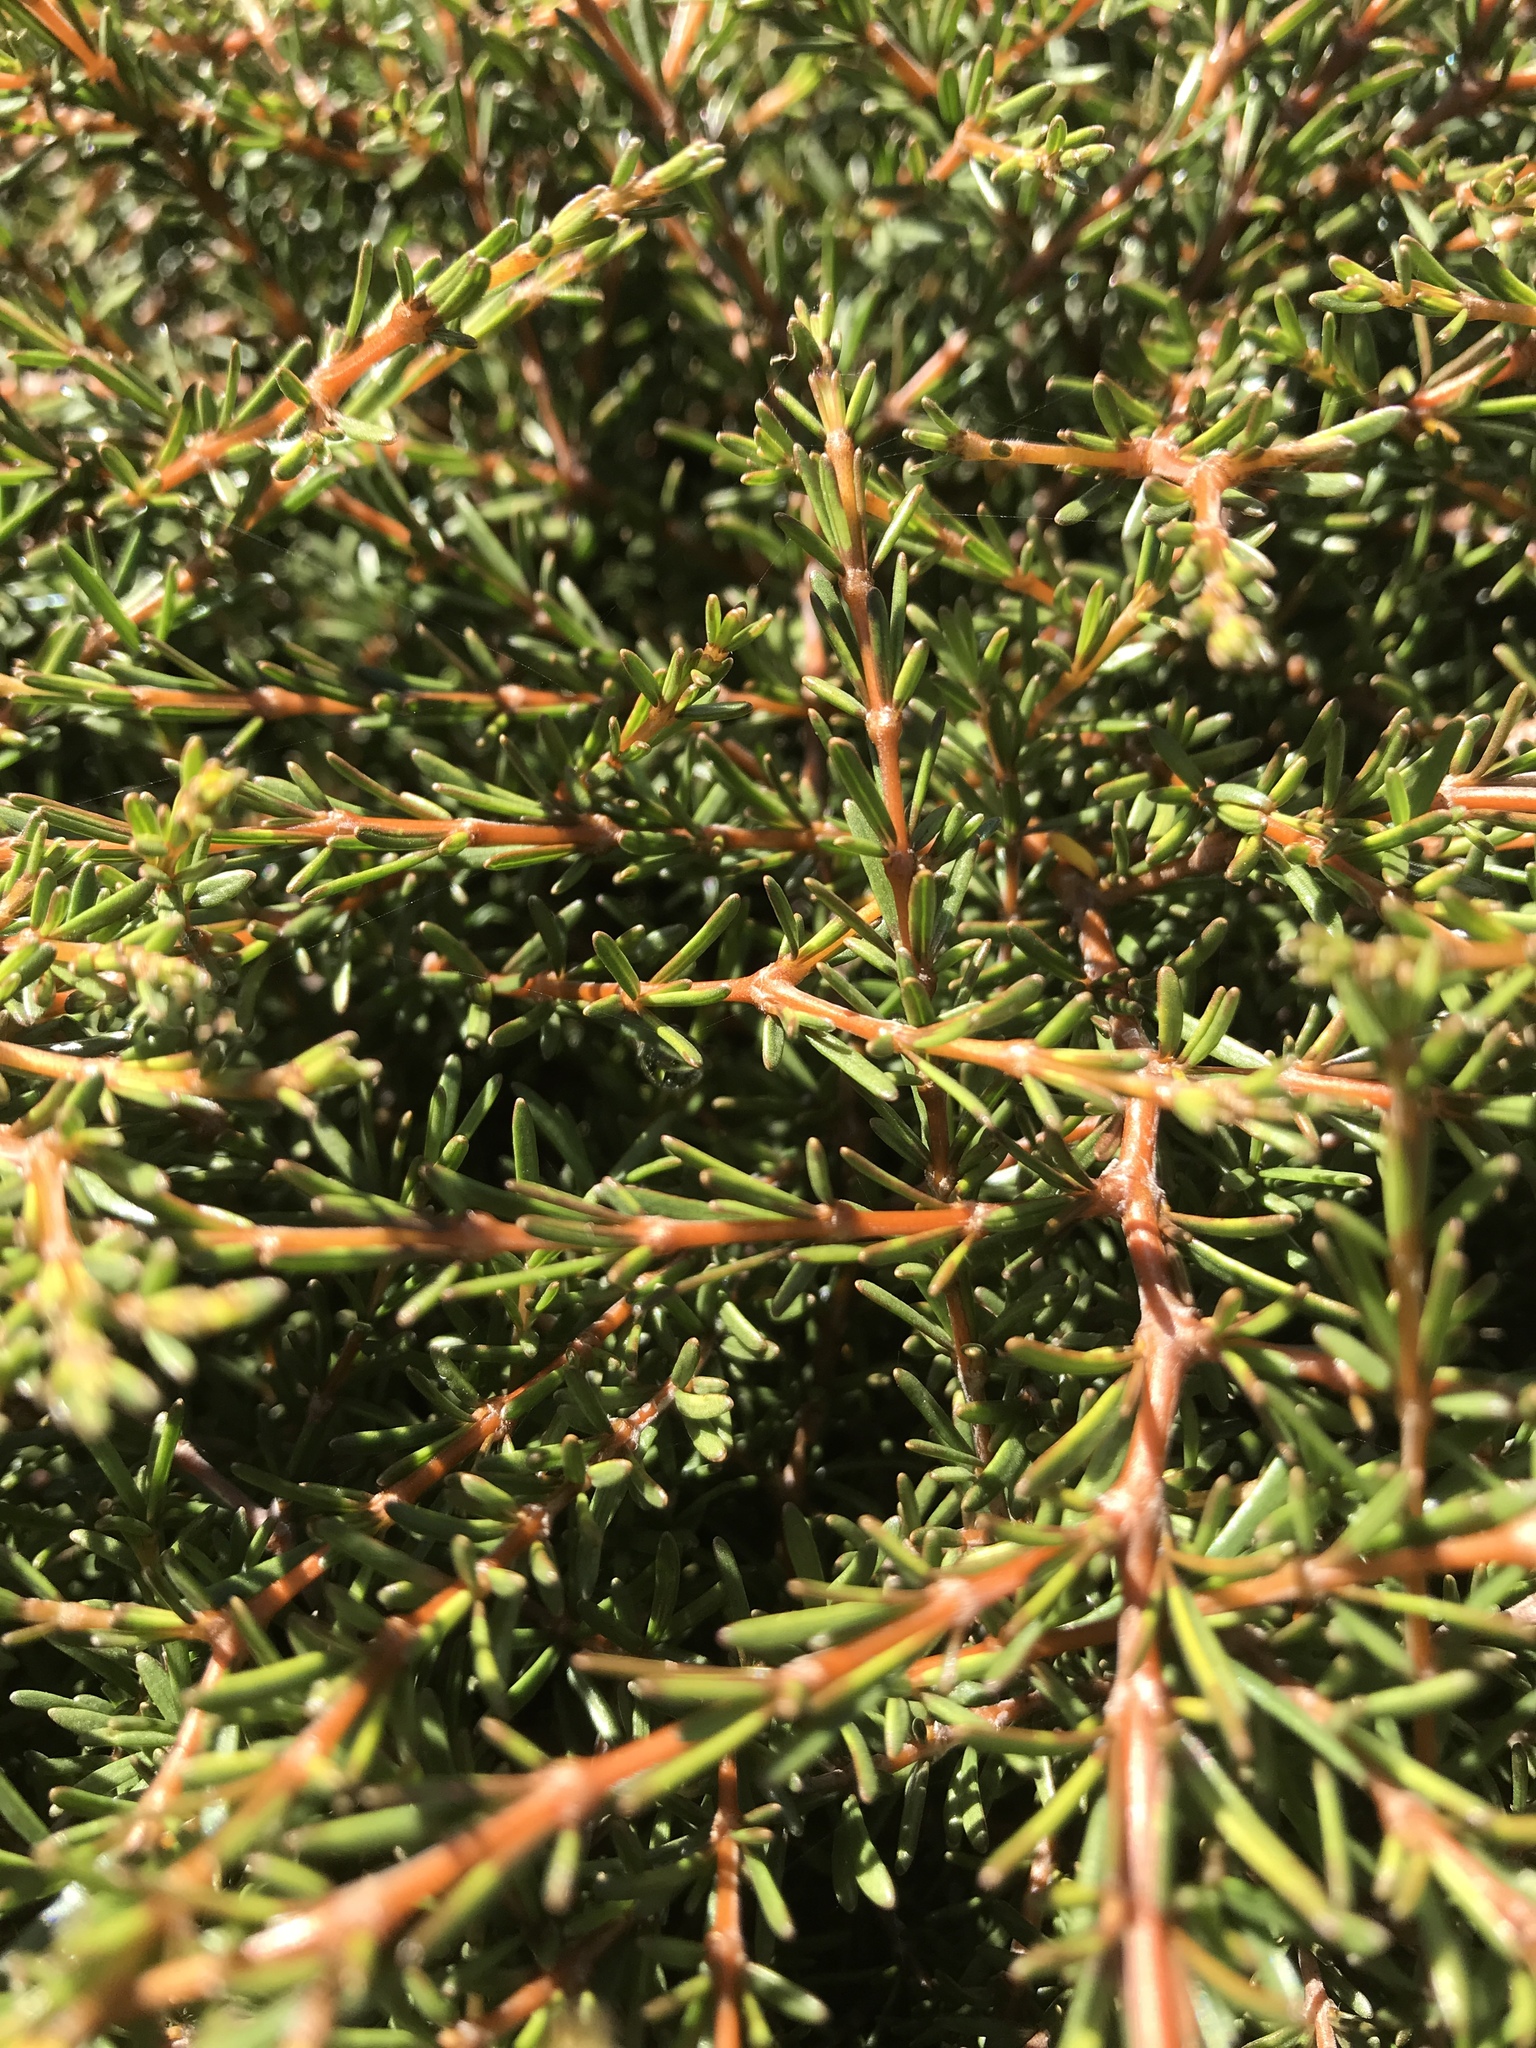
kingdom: Plantae
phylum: Tracheophyta
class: Magnoliopsida
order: Gentianales
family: Rubiaceae
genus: Coprosma
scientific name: Coprosma acerosa
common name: Sand coprosma
